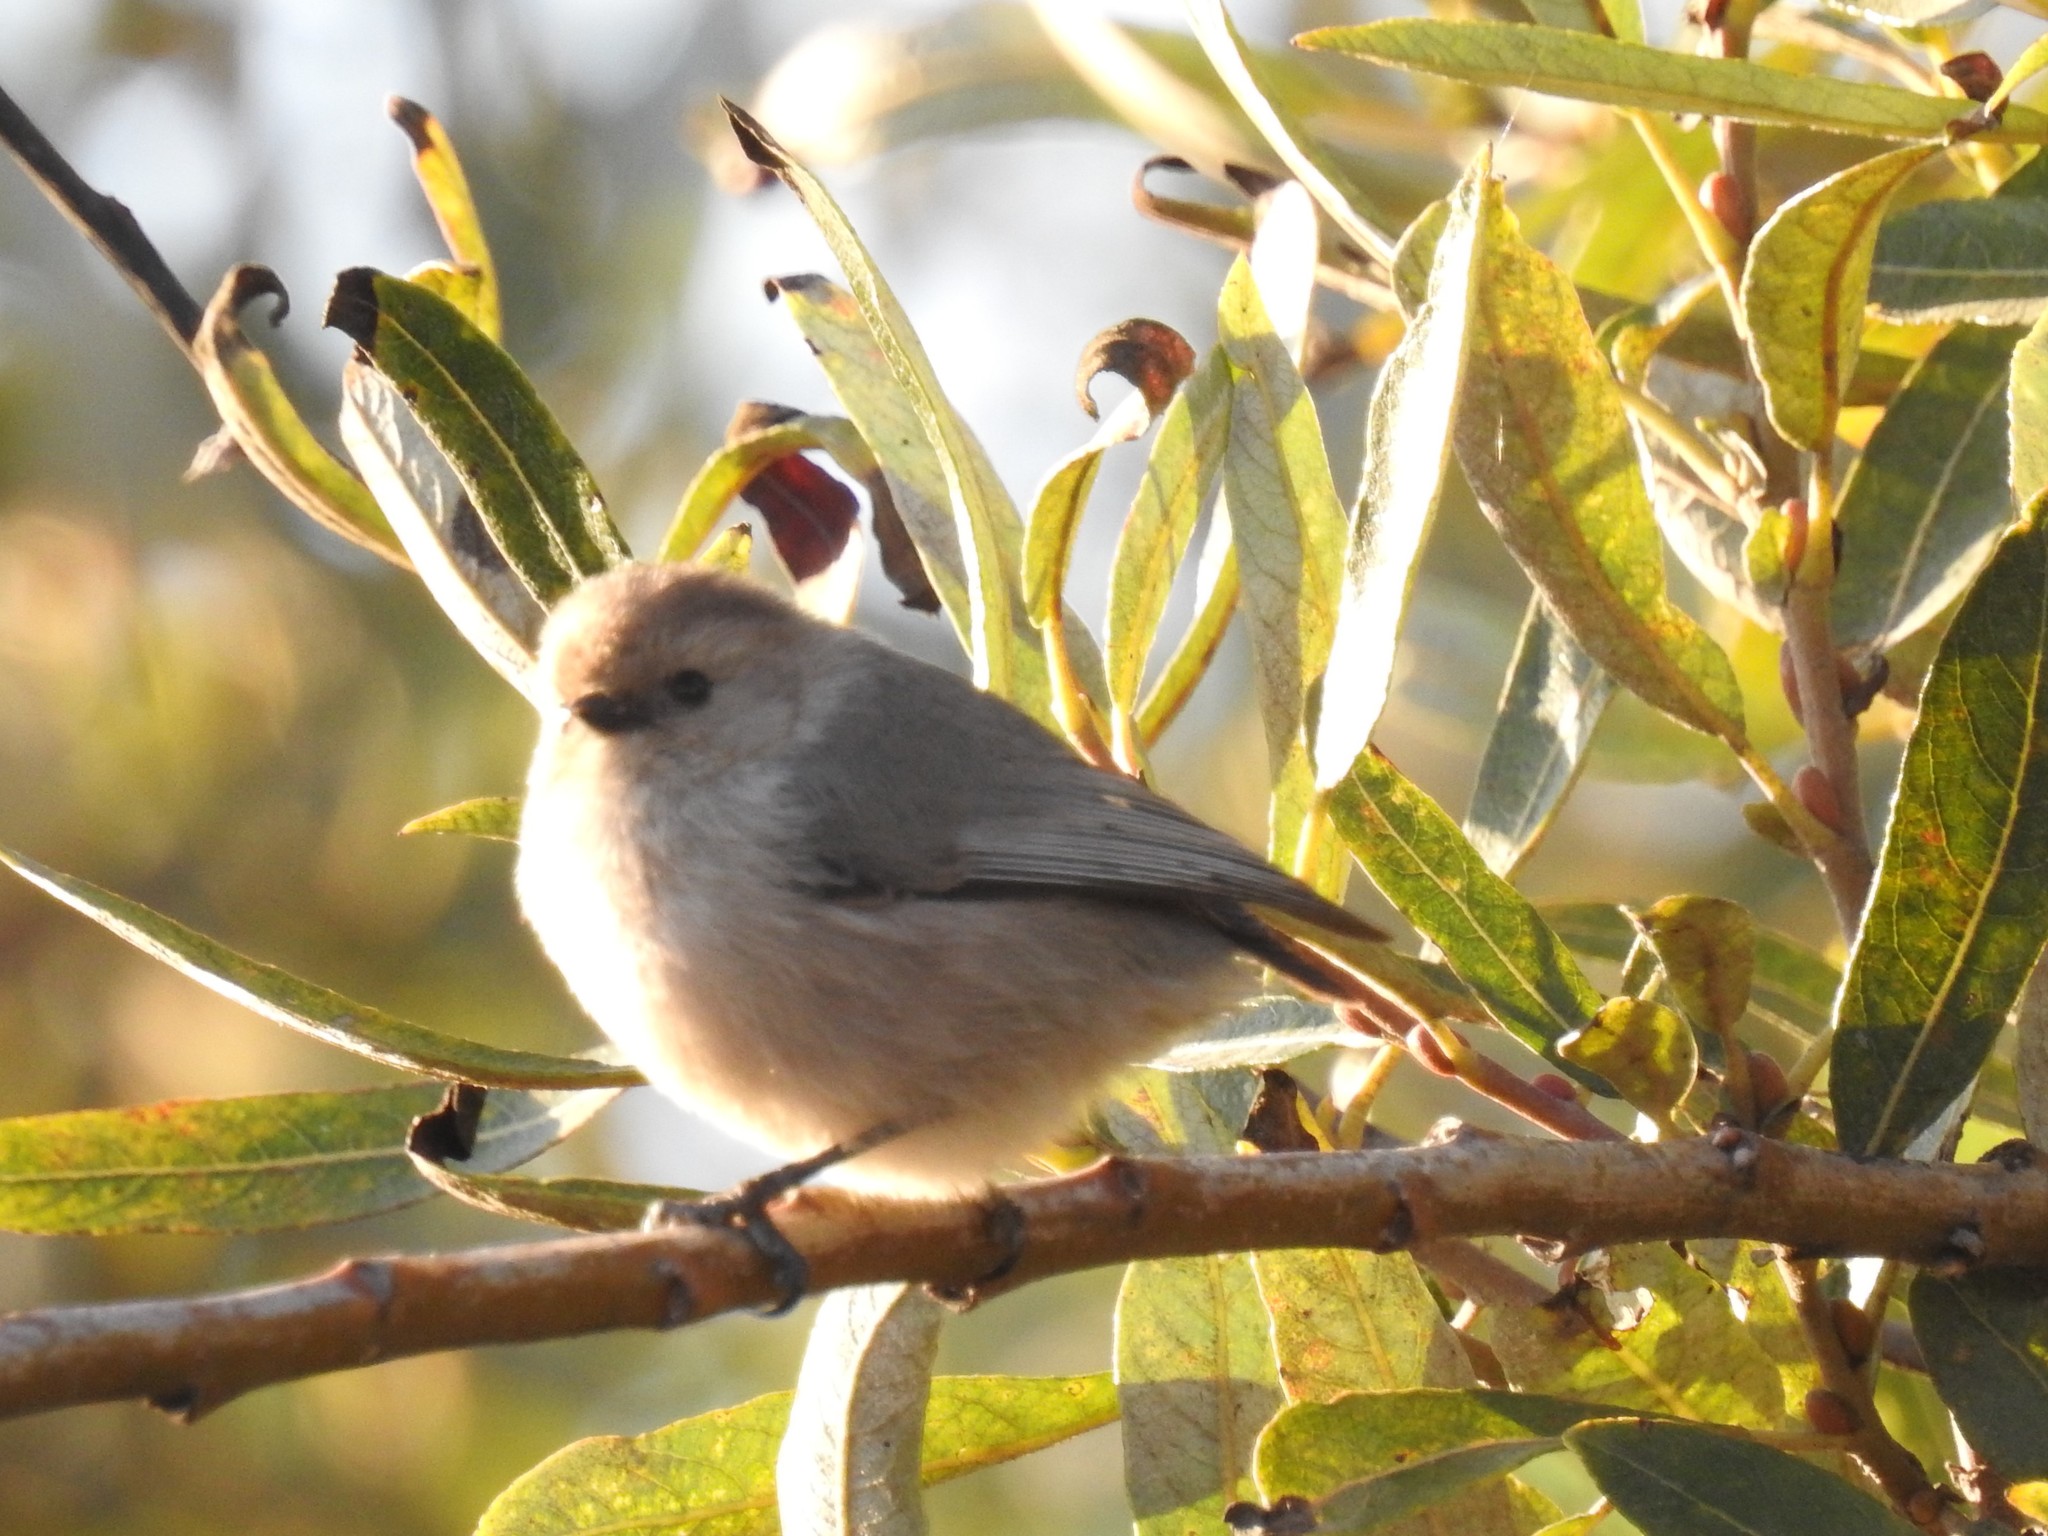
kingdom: Animalia
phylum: Chordata
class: Aves
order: Passeriformes
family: Aegithalidae
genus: Psaltriparus
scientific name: Psaltriparus minimus
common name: American bushtit
